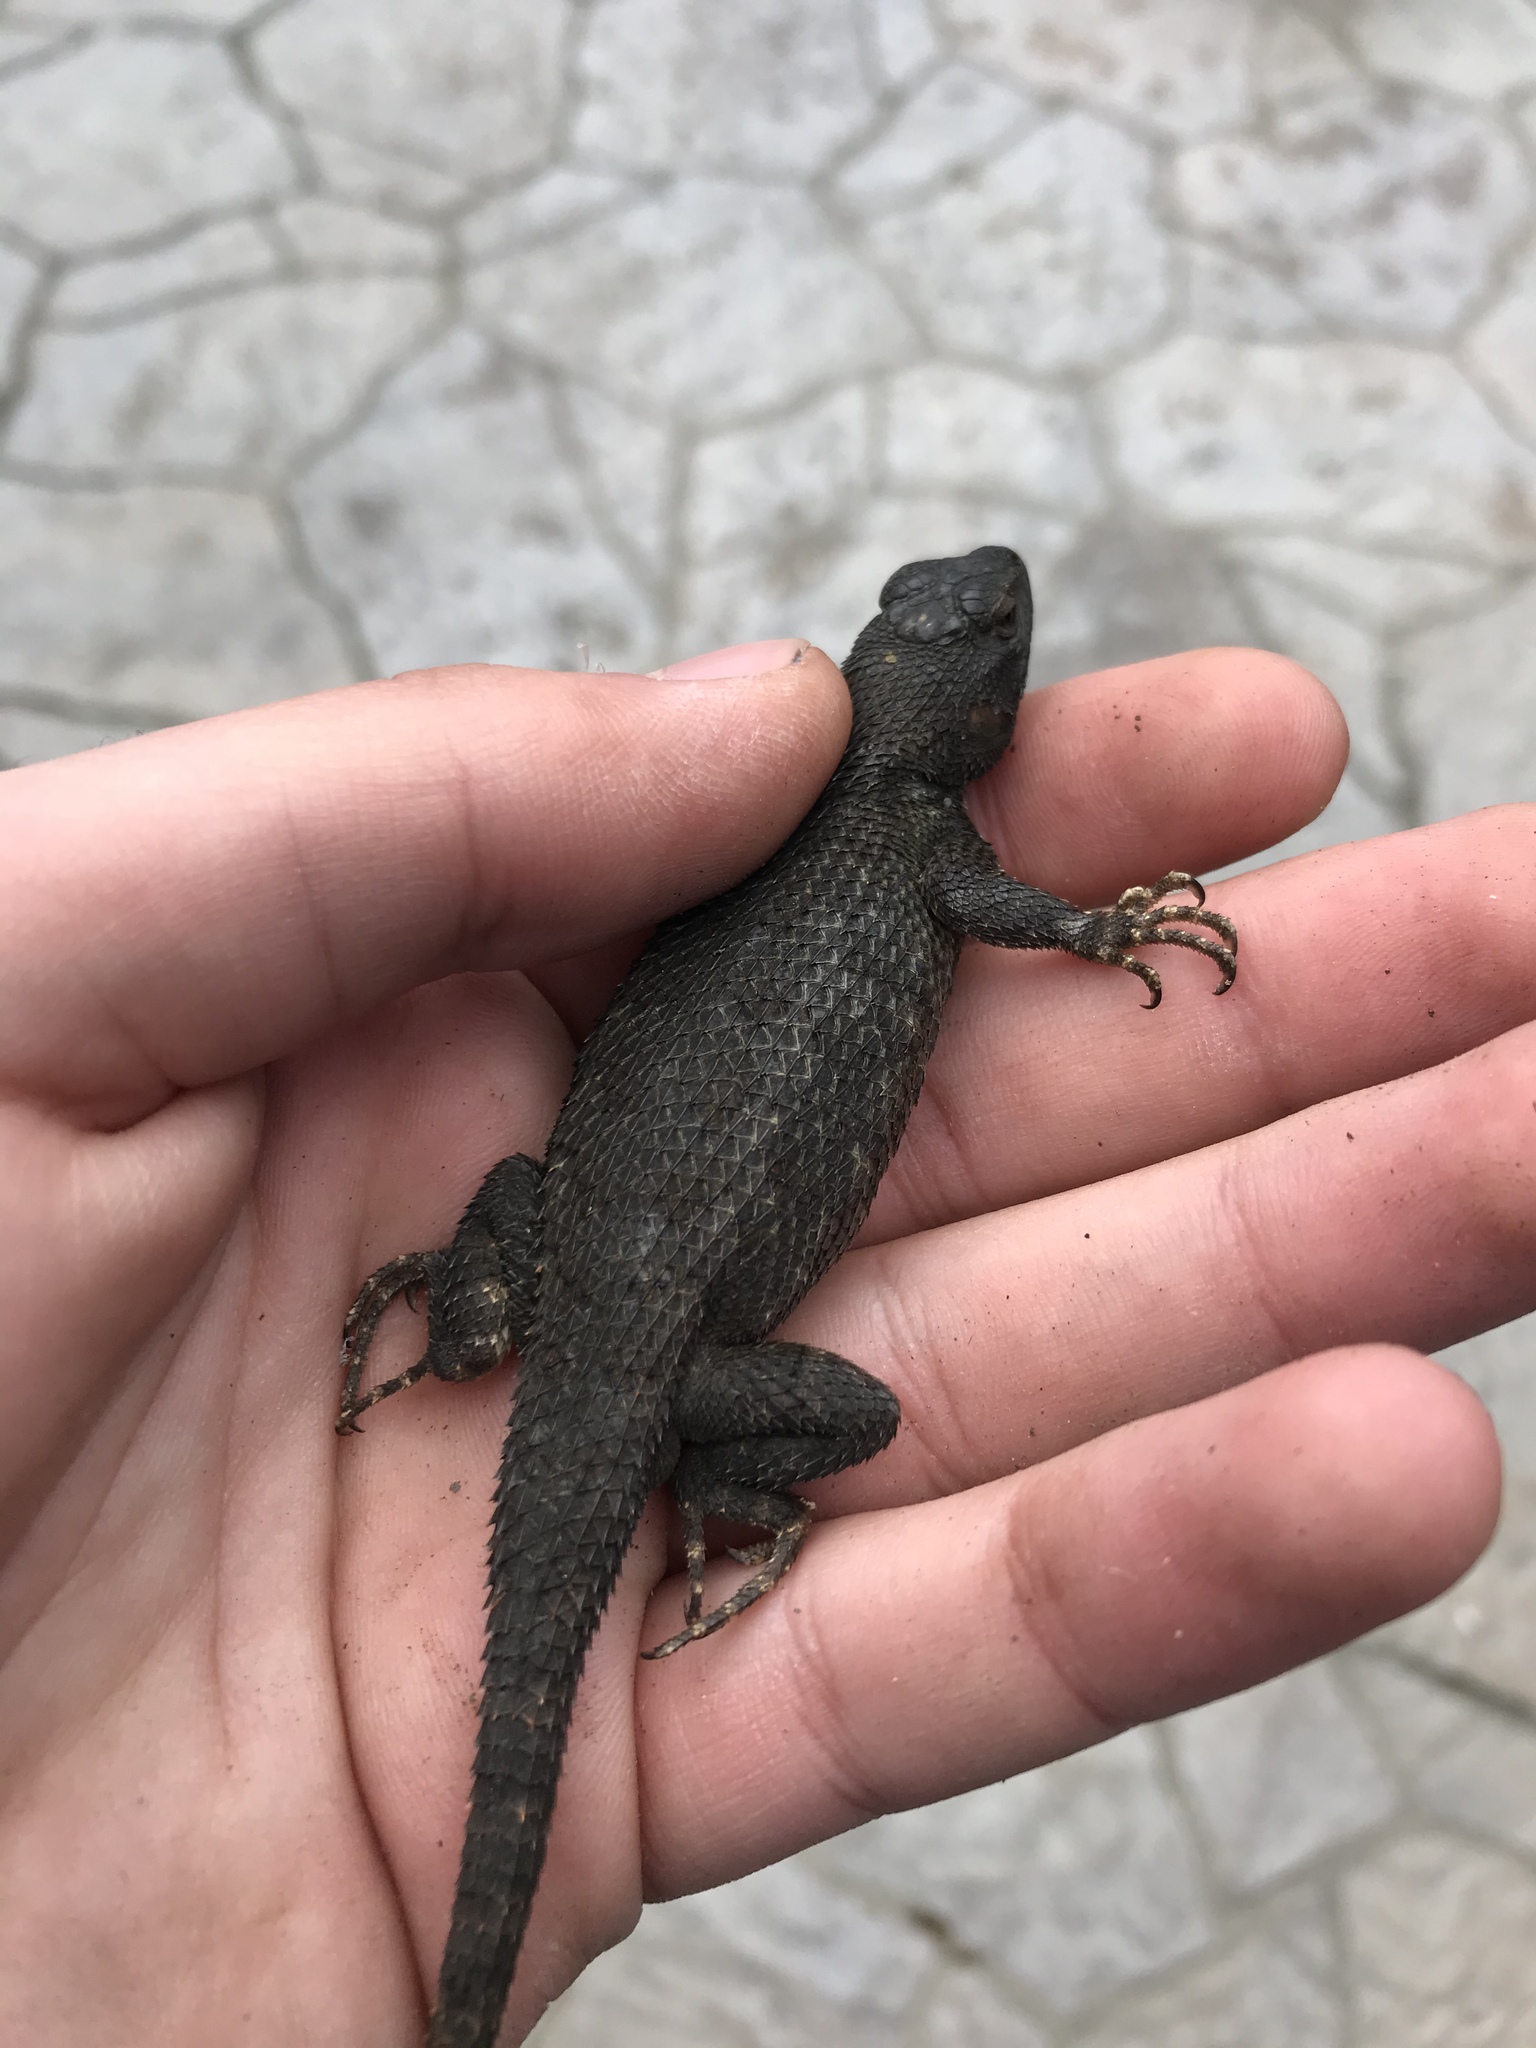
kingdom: Animalia
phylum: Chordata
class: Squamata
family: Phrynosomatidae
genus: Sceloporus
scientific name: Sceloporus occidentalis
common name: Western fence lizard
